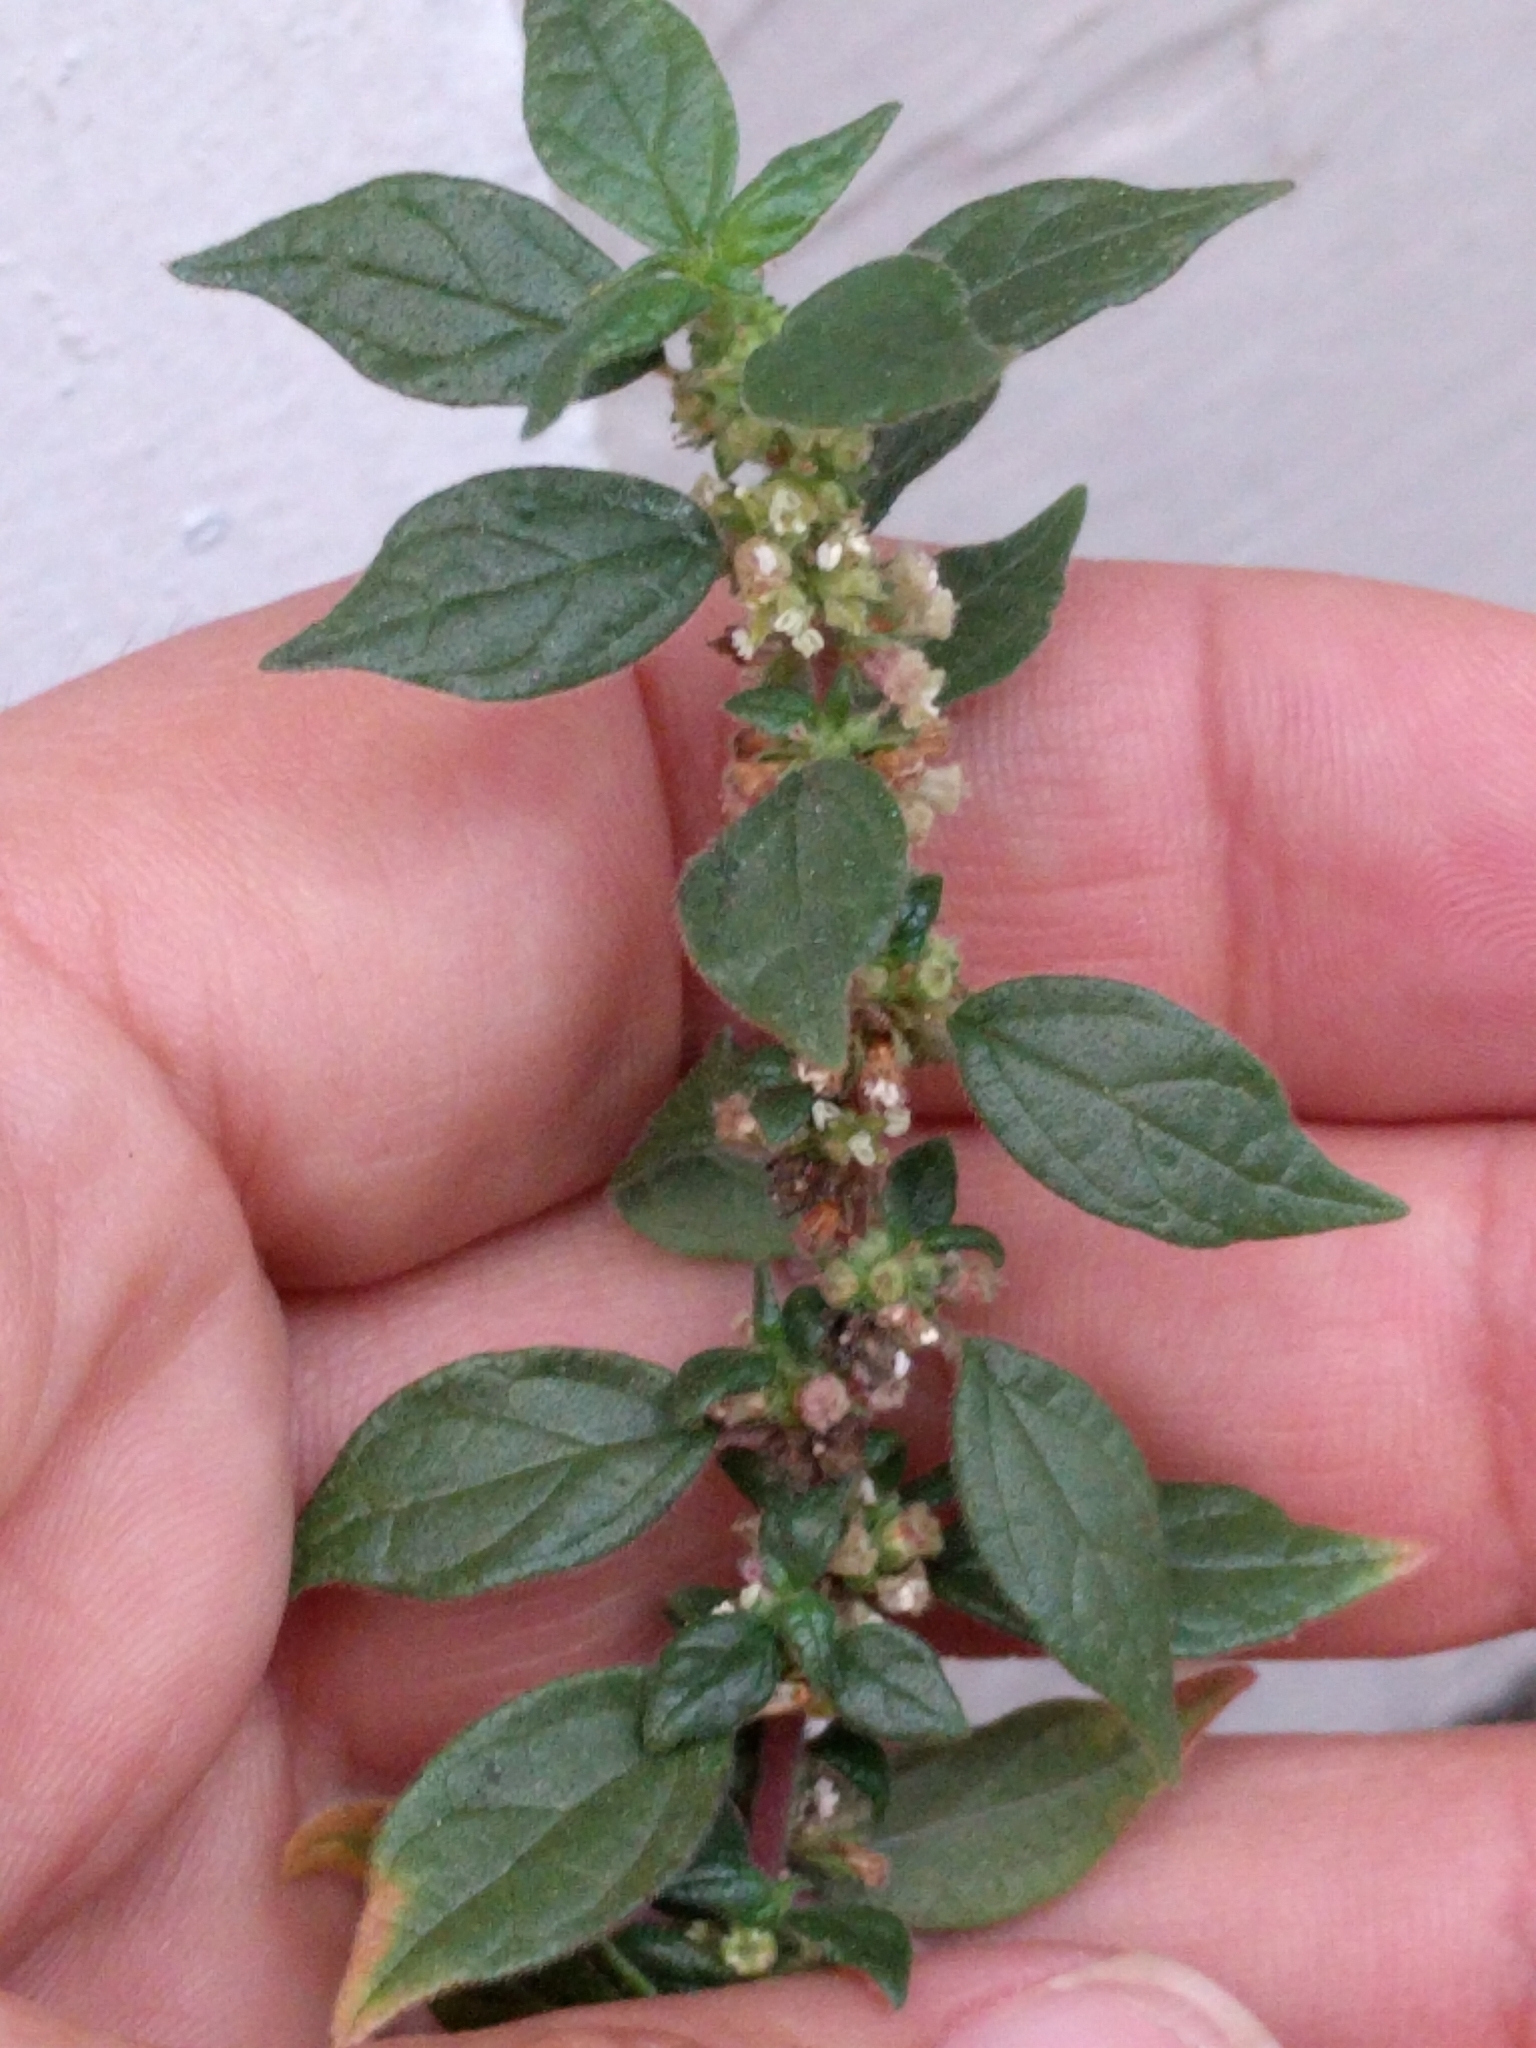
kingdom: Plantae
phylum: Tracheophyta
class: Magnoliopsida
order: Rosales
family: Urticaceae
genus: Parietaria
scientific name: Parietaria judaica
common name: Pellitory-of-the-wall
